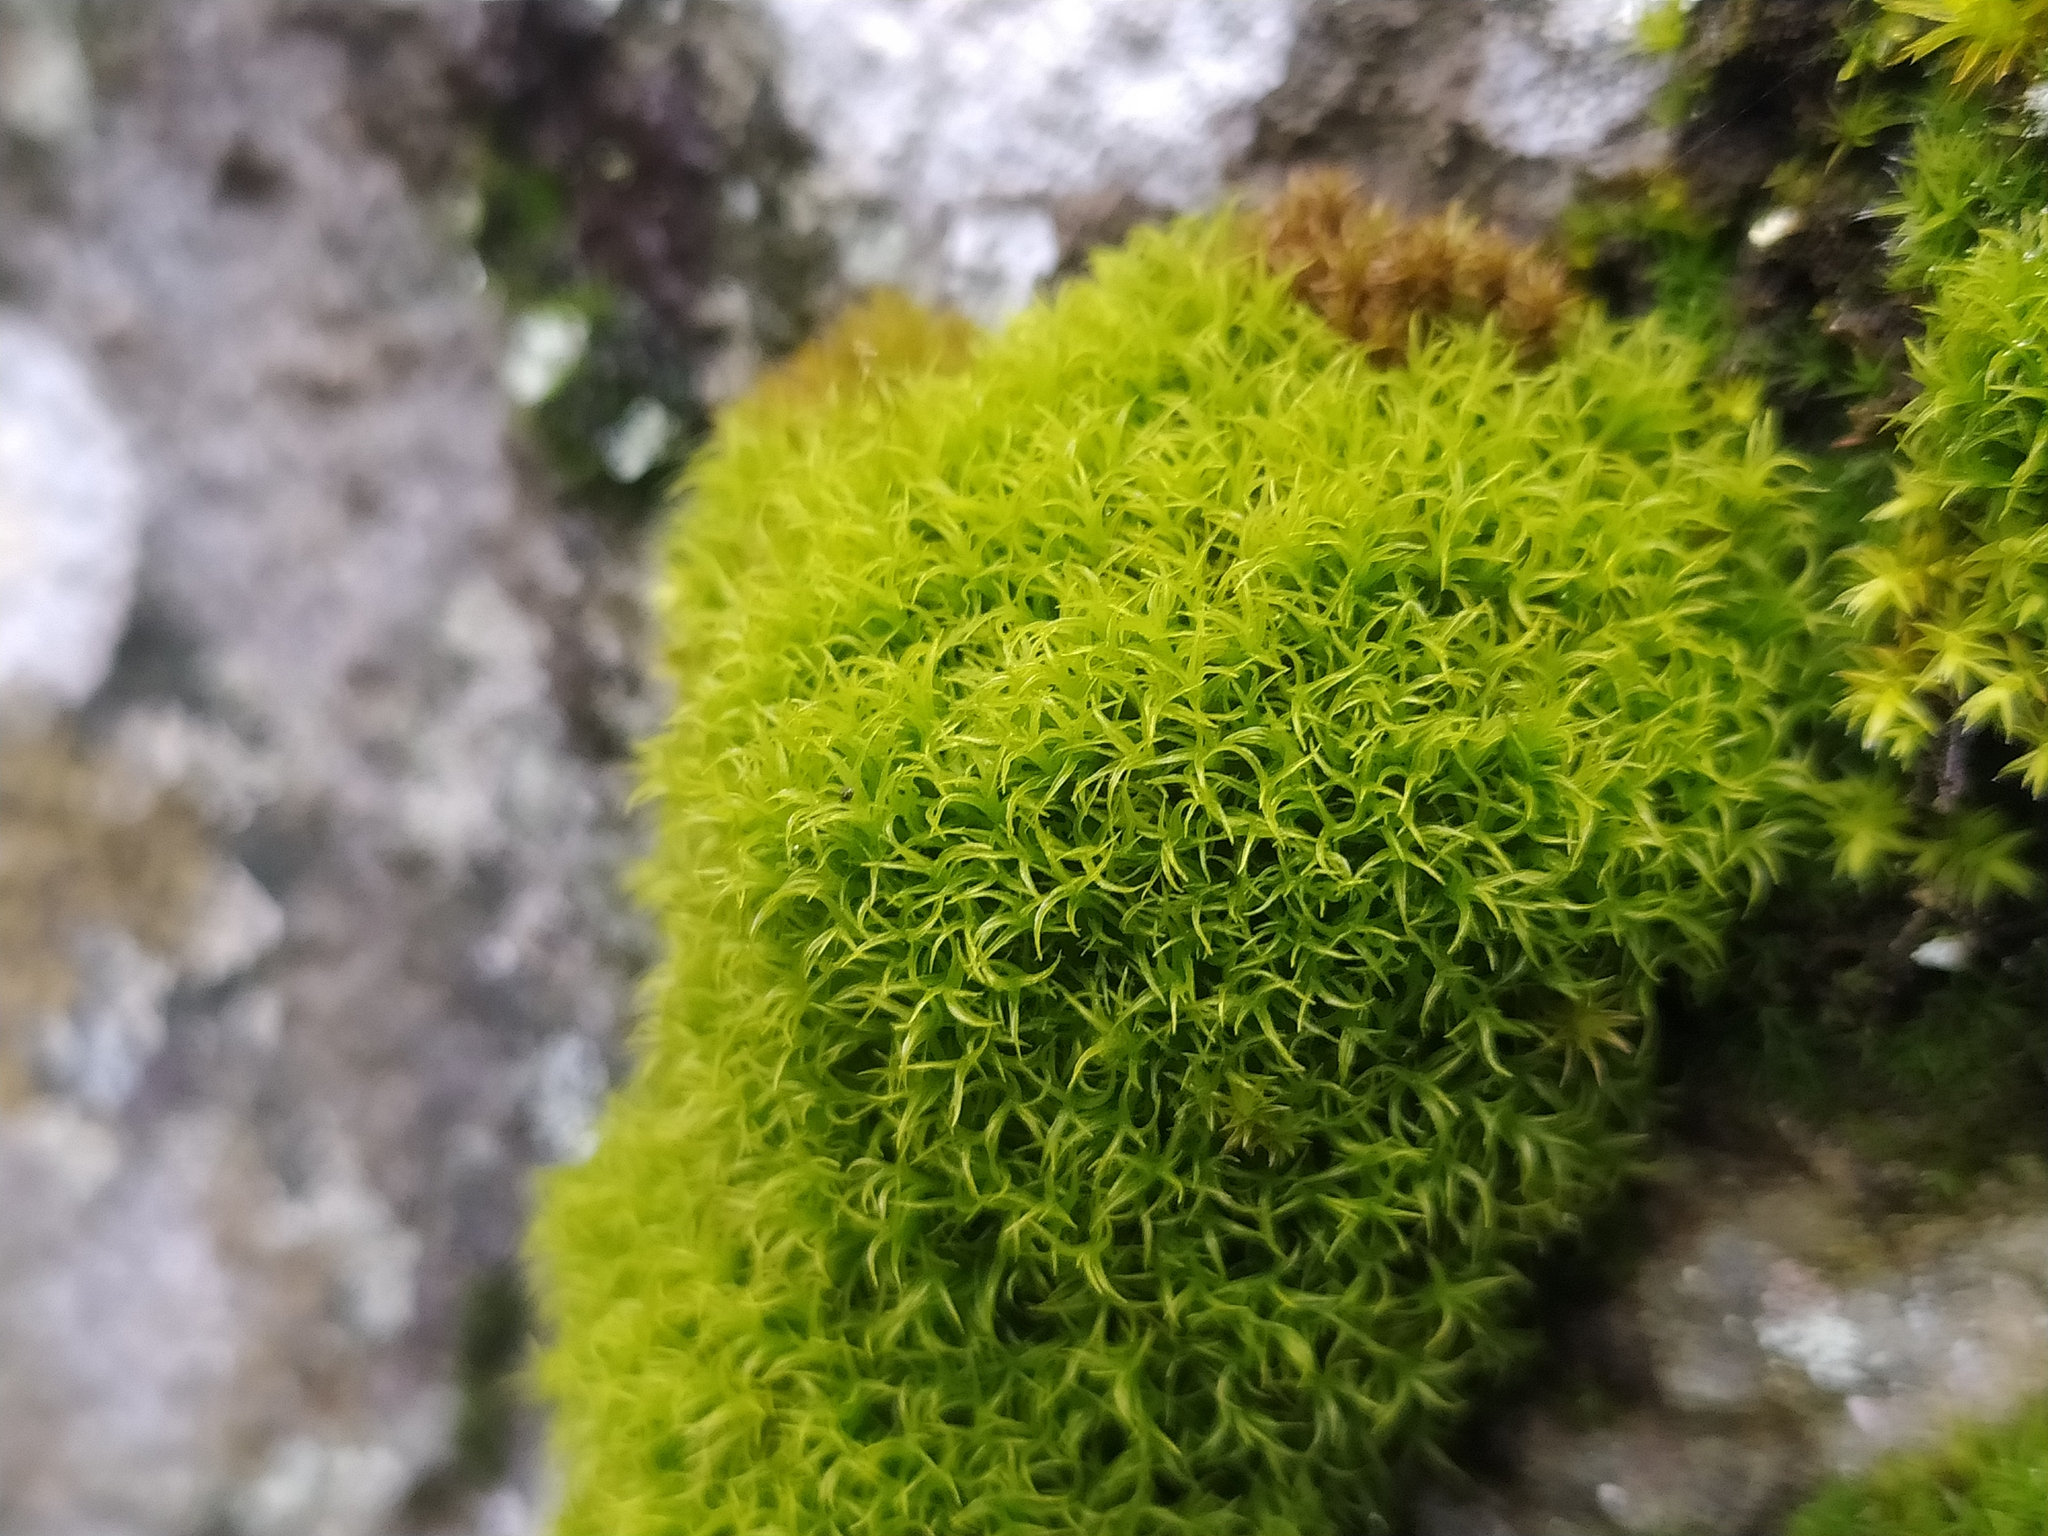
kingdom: Plantae
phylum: Bryophyta
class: Bryopsida
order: Dicranales
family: Rhabdoweisiaceae
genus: Cynodontium
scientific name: Cynodontium polycarpon
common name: Many-fruited dogtooth moss
